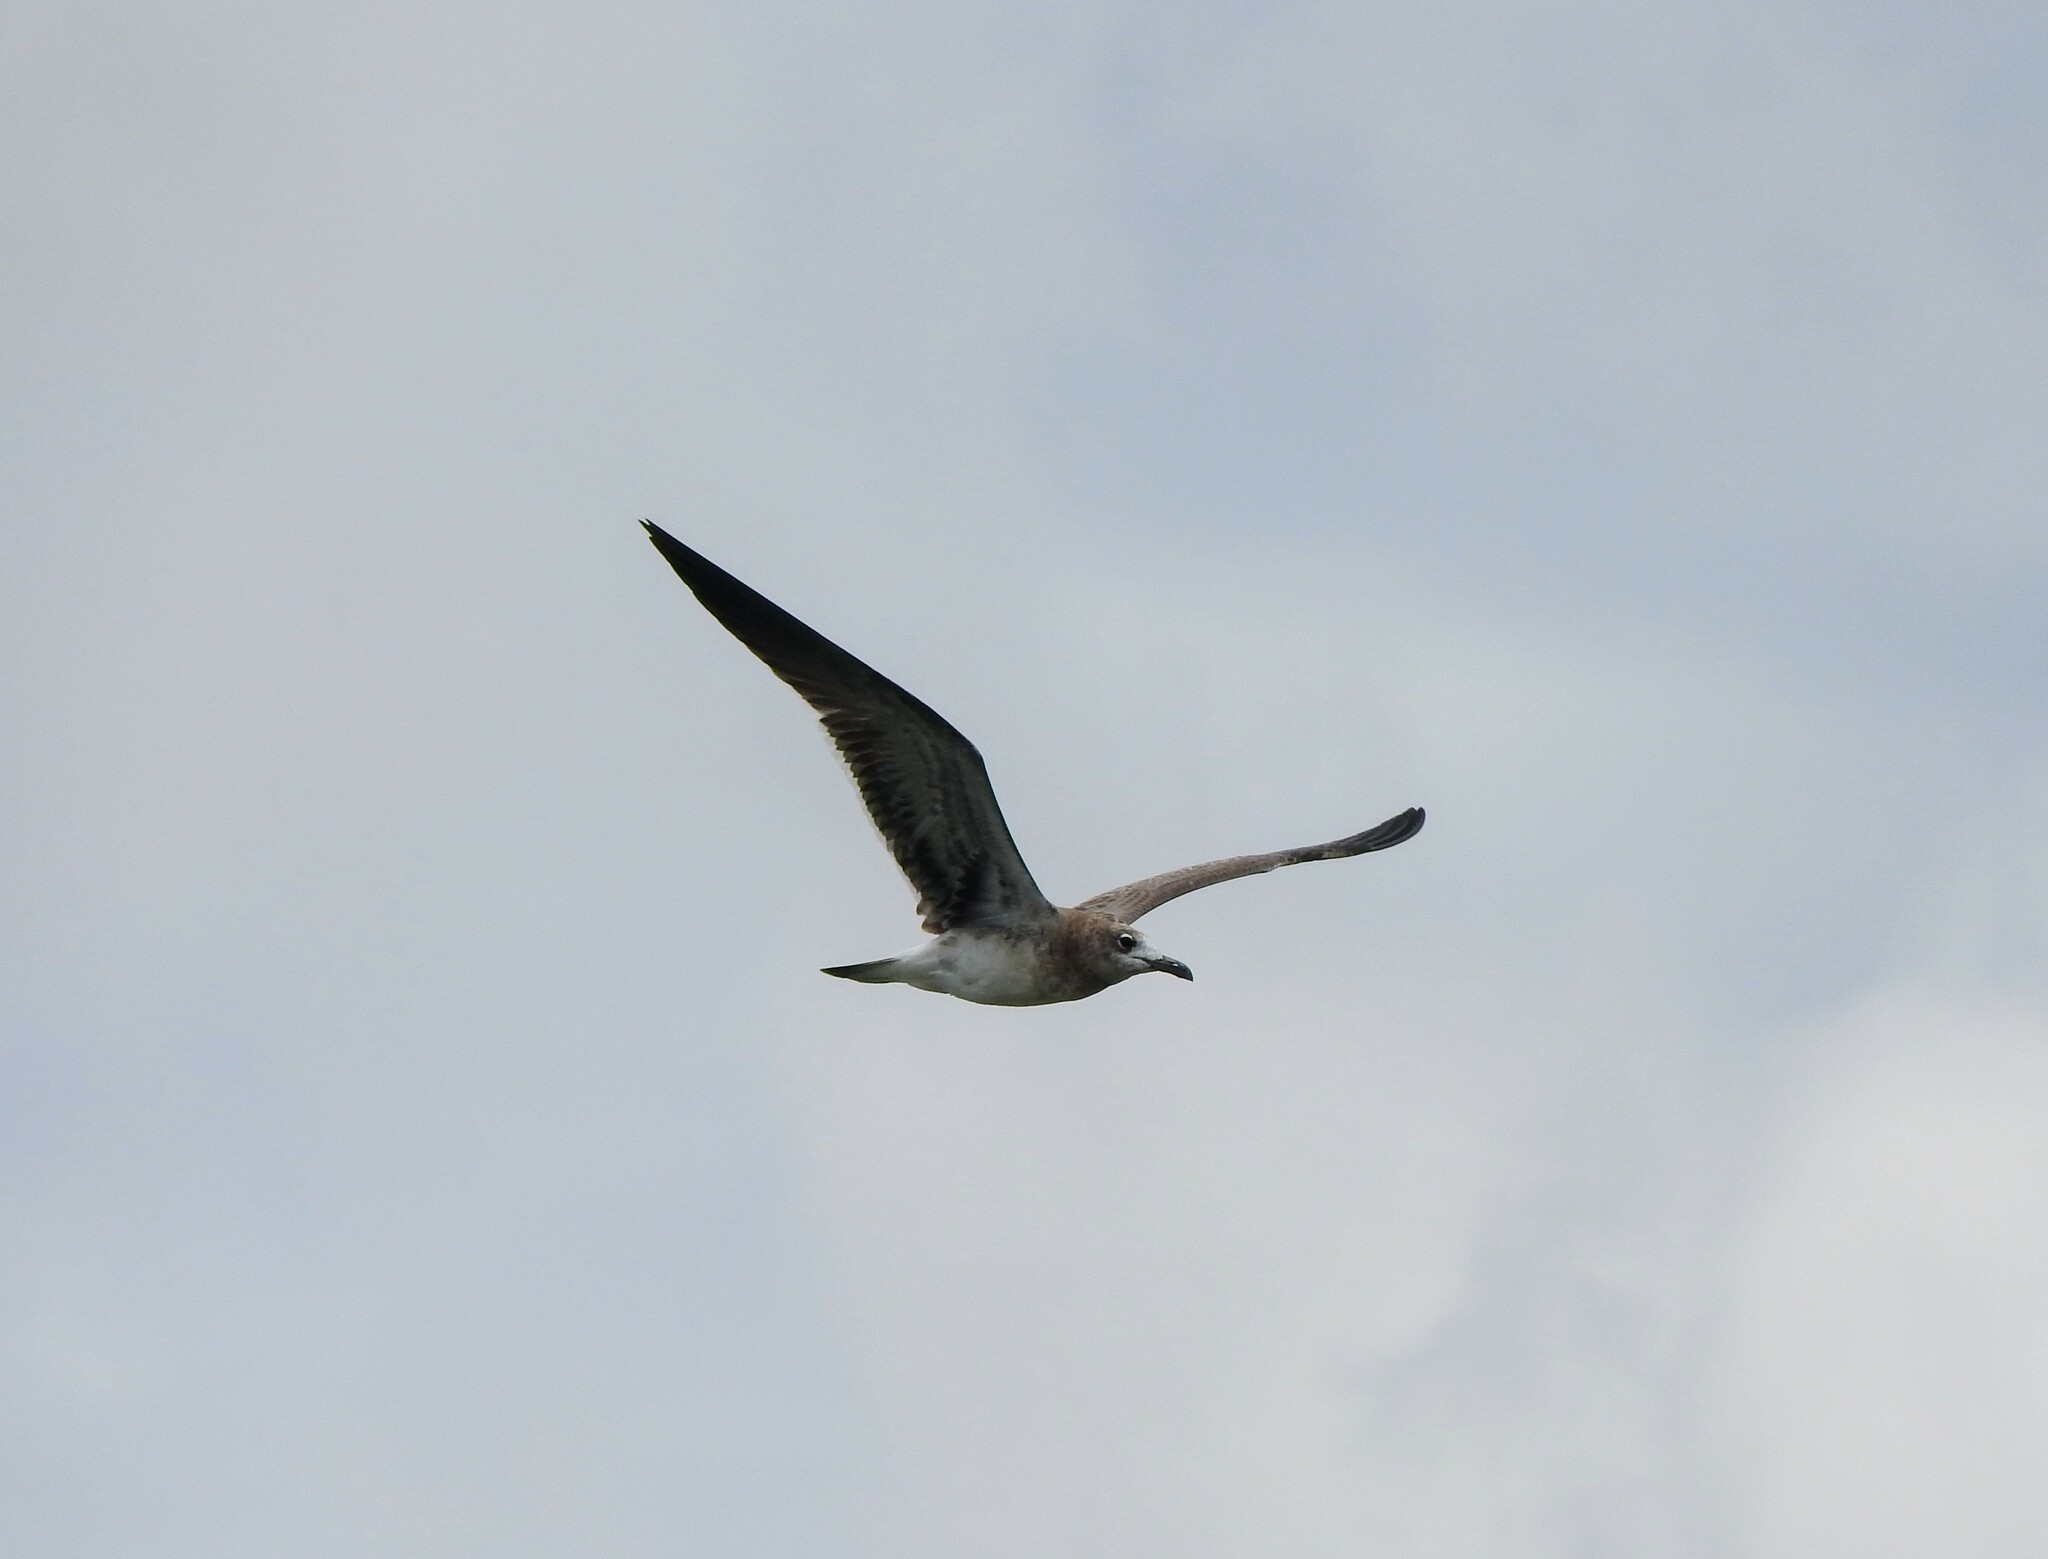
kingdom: Animalia
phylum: Chordata
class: Aves
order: Charadriiformes
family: Laridae
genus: Leucophaeus
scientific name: Leucophaeus atricilla
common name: Laughing gull
